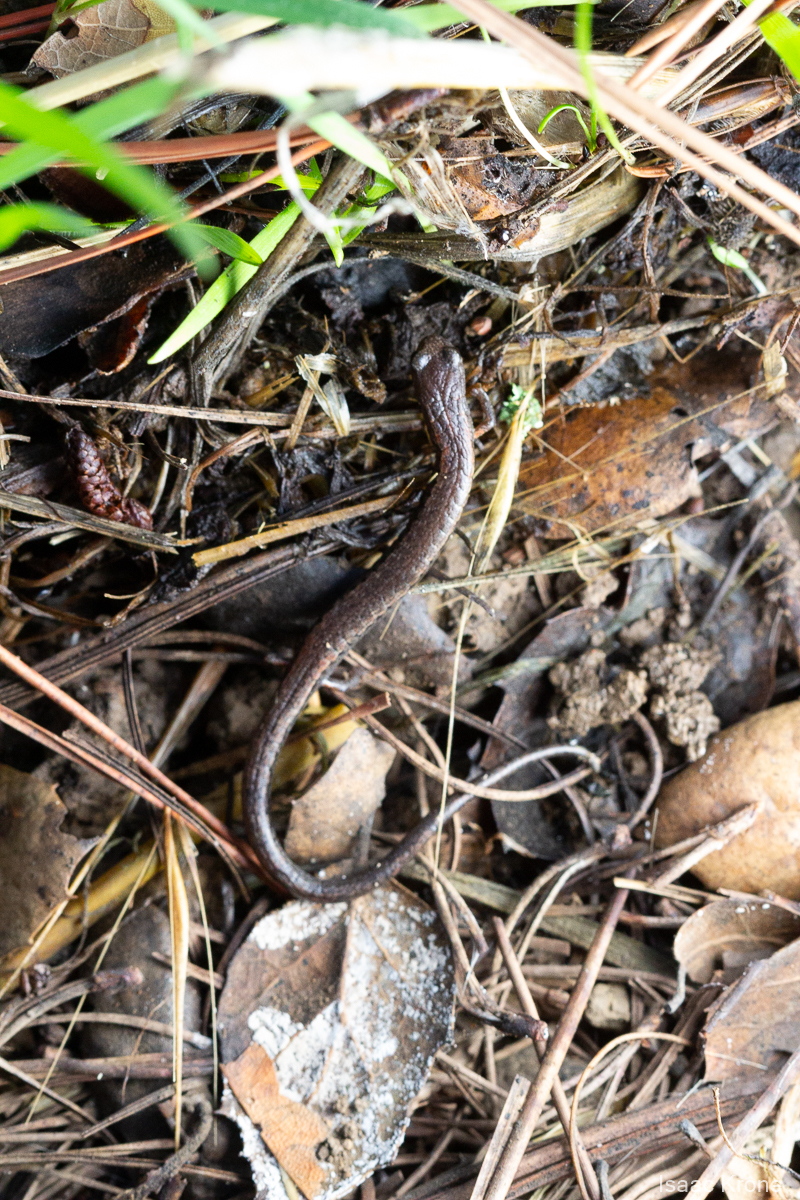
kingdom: Animalia
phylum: Chordata
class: Amphibia
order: Caudata
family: Plethodontidae
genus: Batrachoseps
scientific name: Batrachoseps attenuatus
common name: California slender salamander
